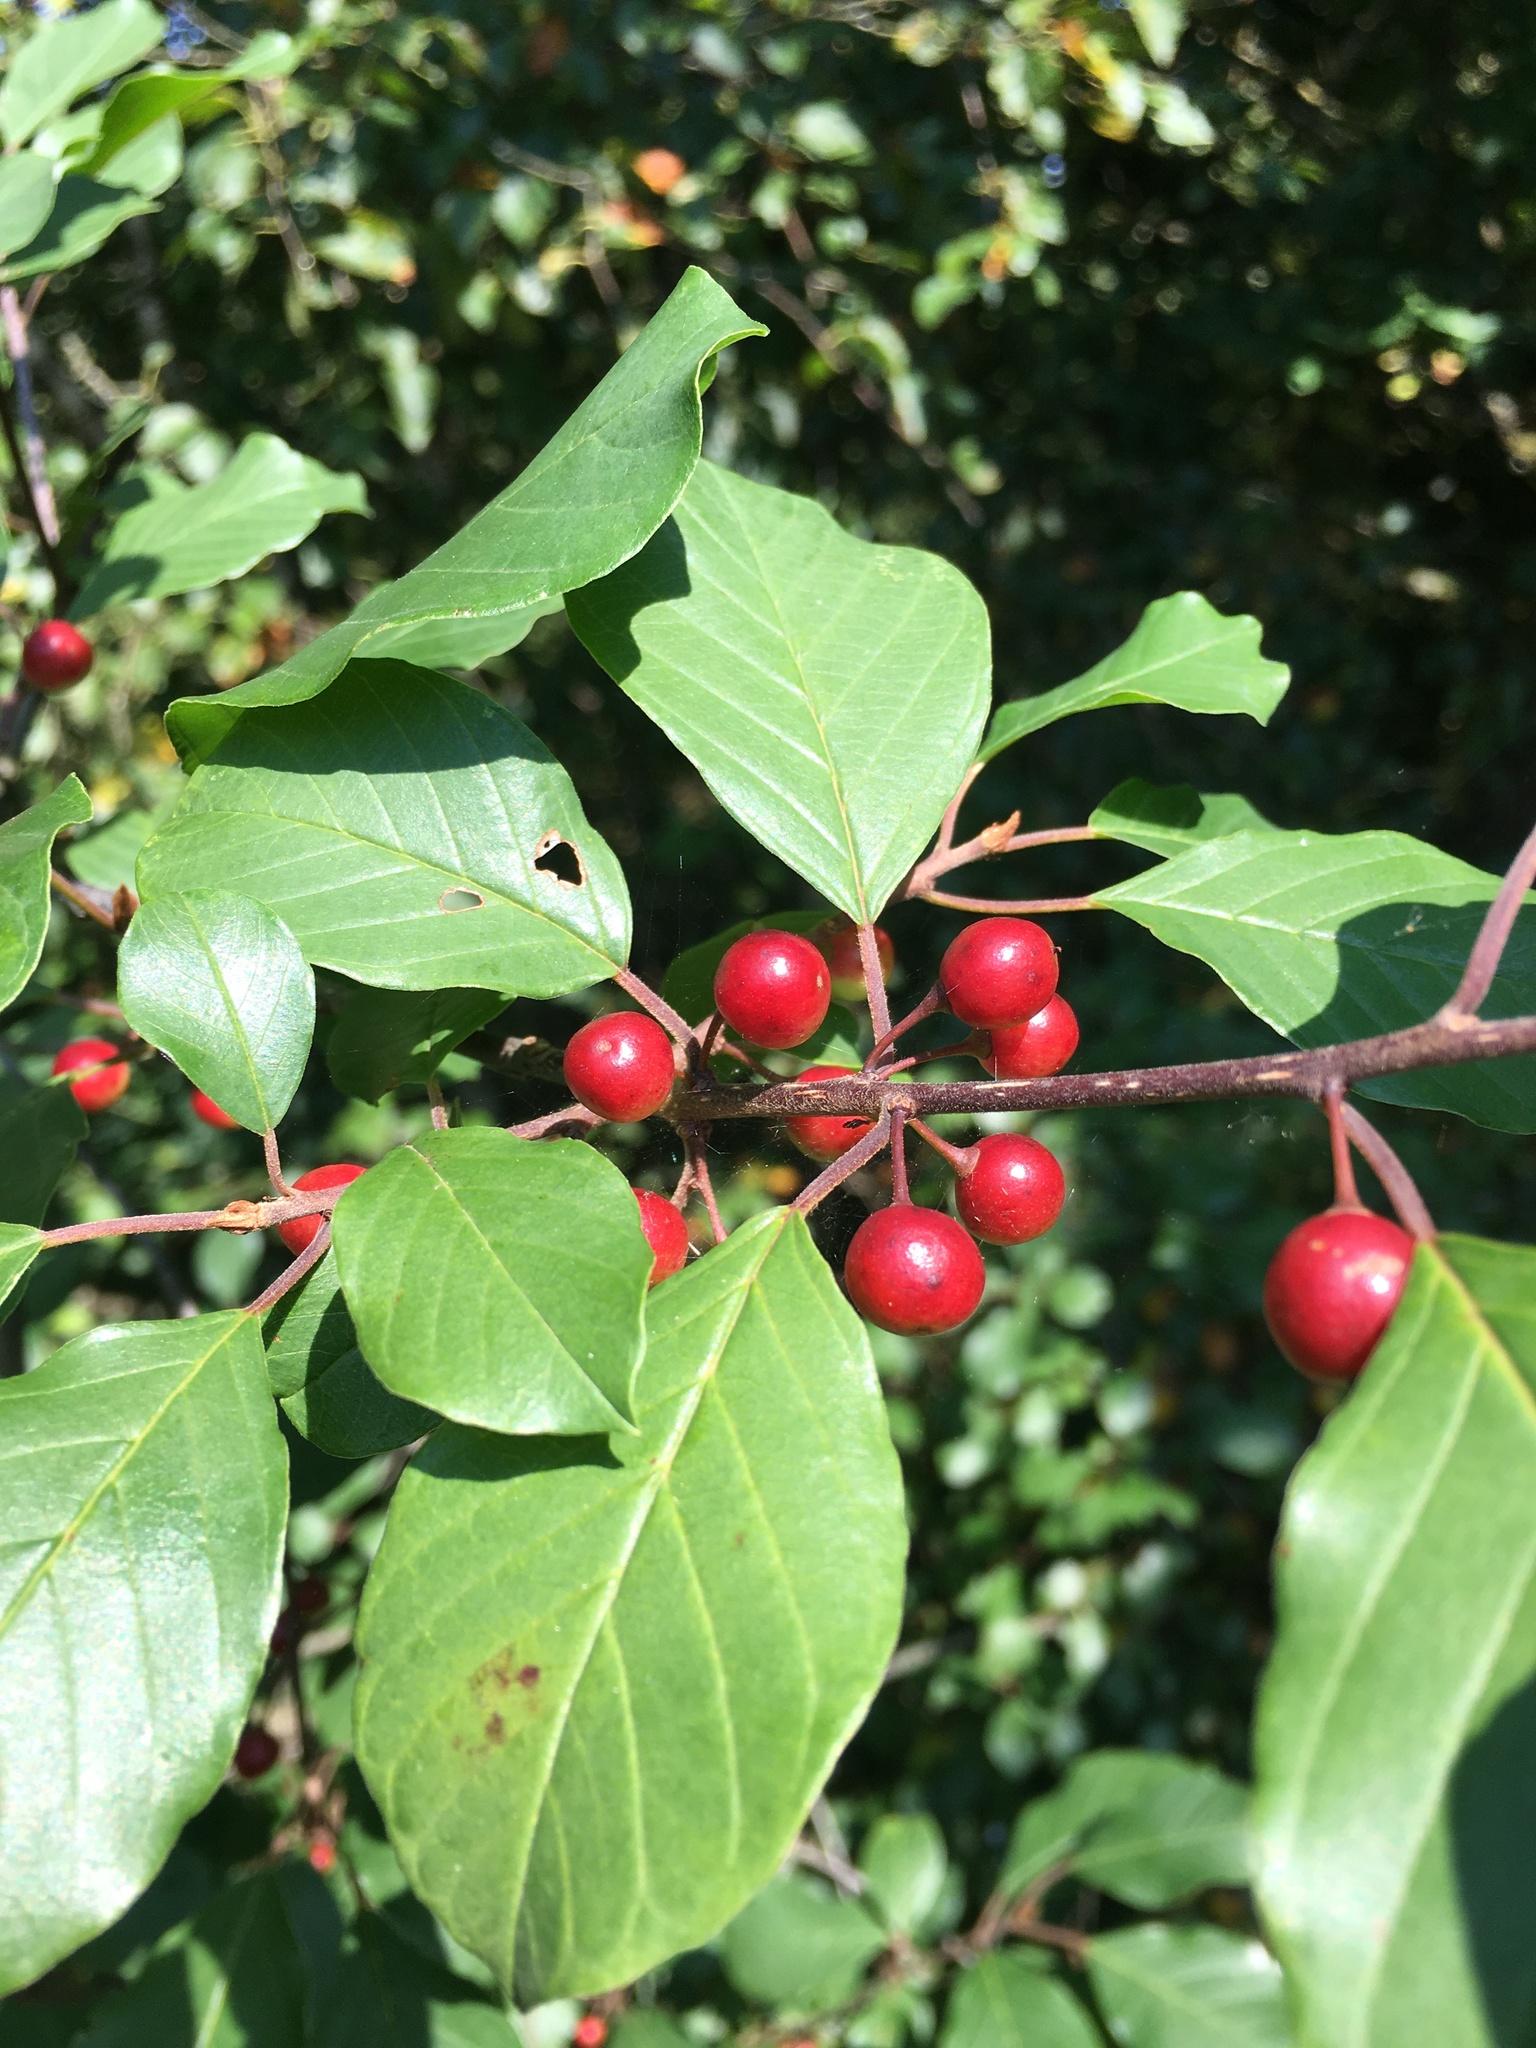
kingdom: Plantae
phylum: Tracheophyta
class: Magnoliopsida
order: Rosales
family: Rhamnaceae
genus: Frangula
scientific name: Frangula alnus
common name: Alder buckthorn
